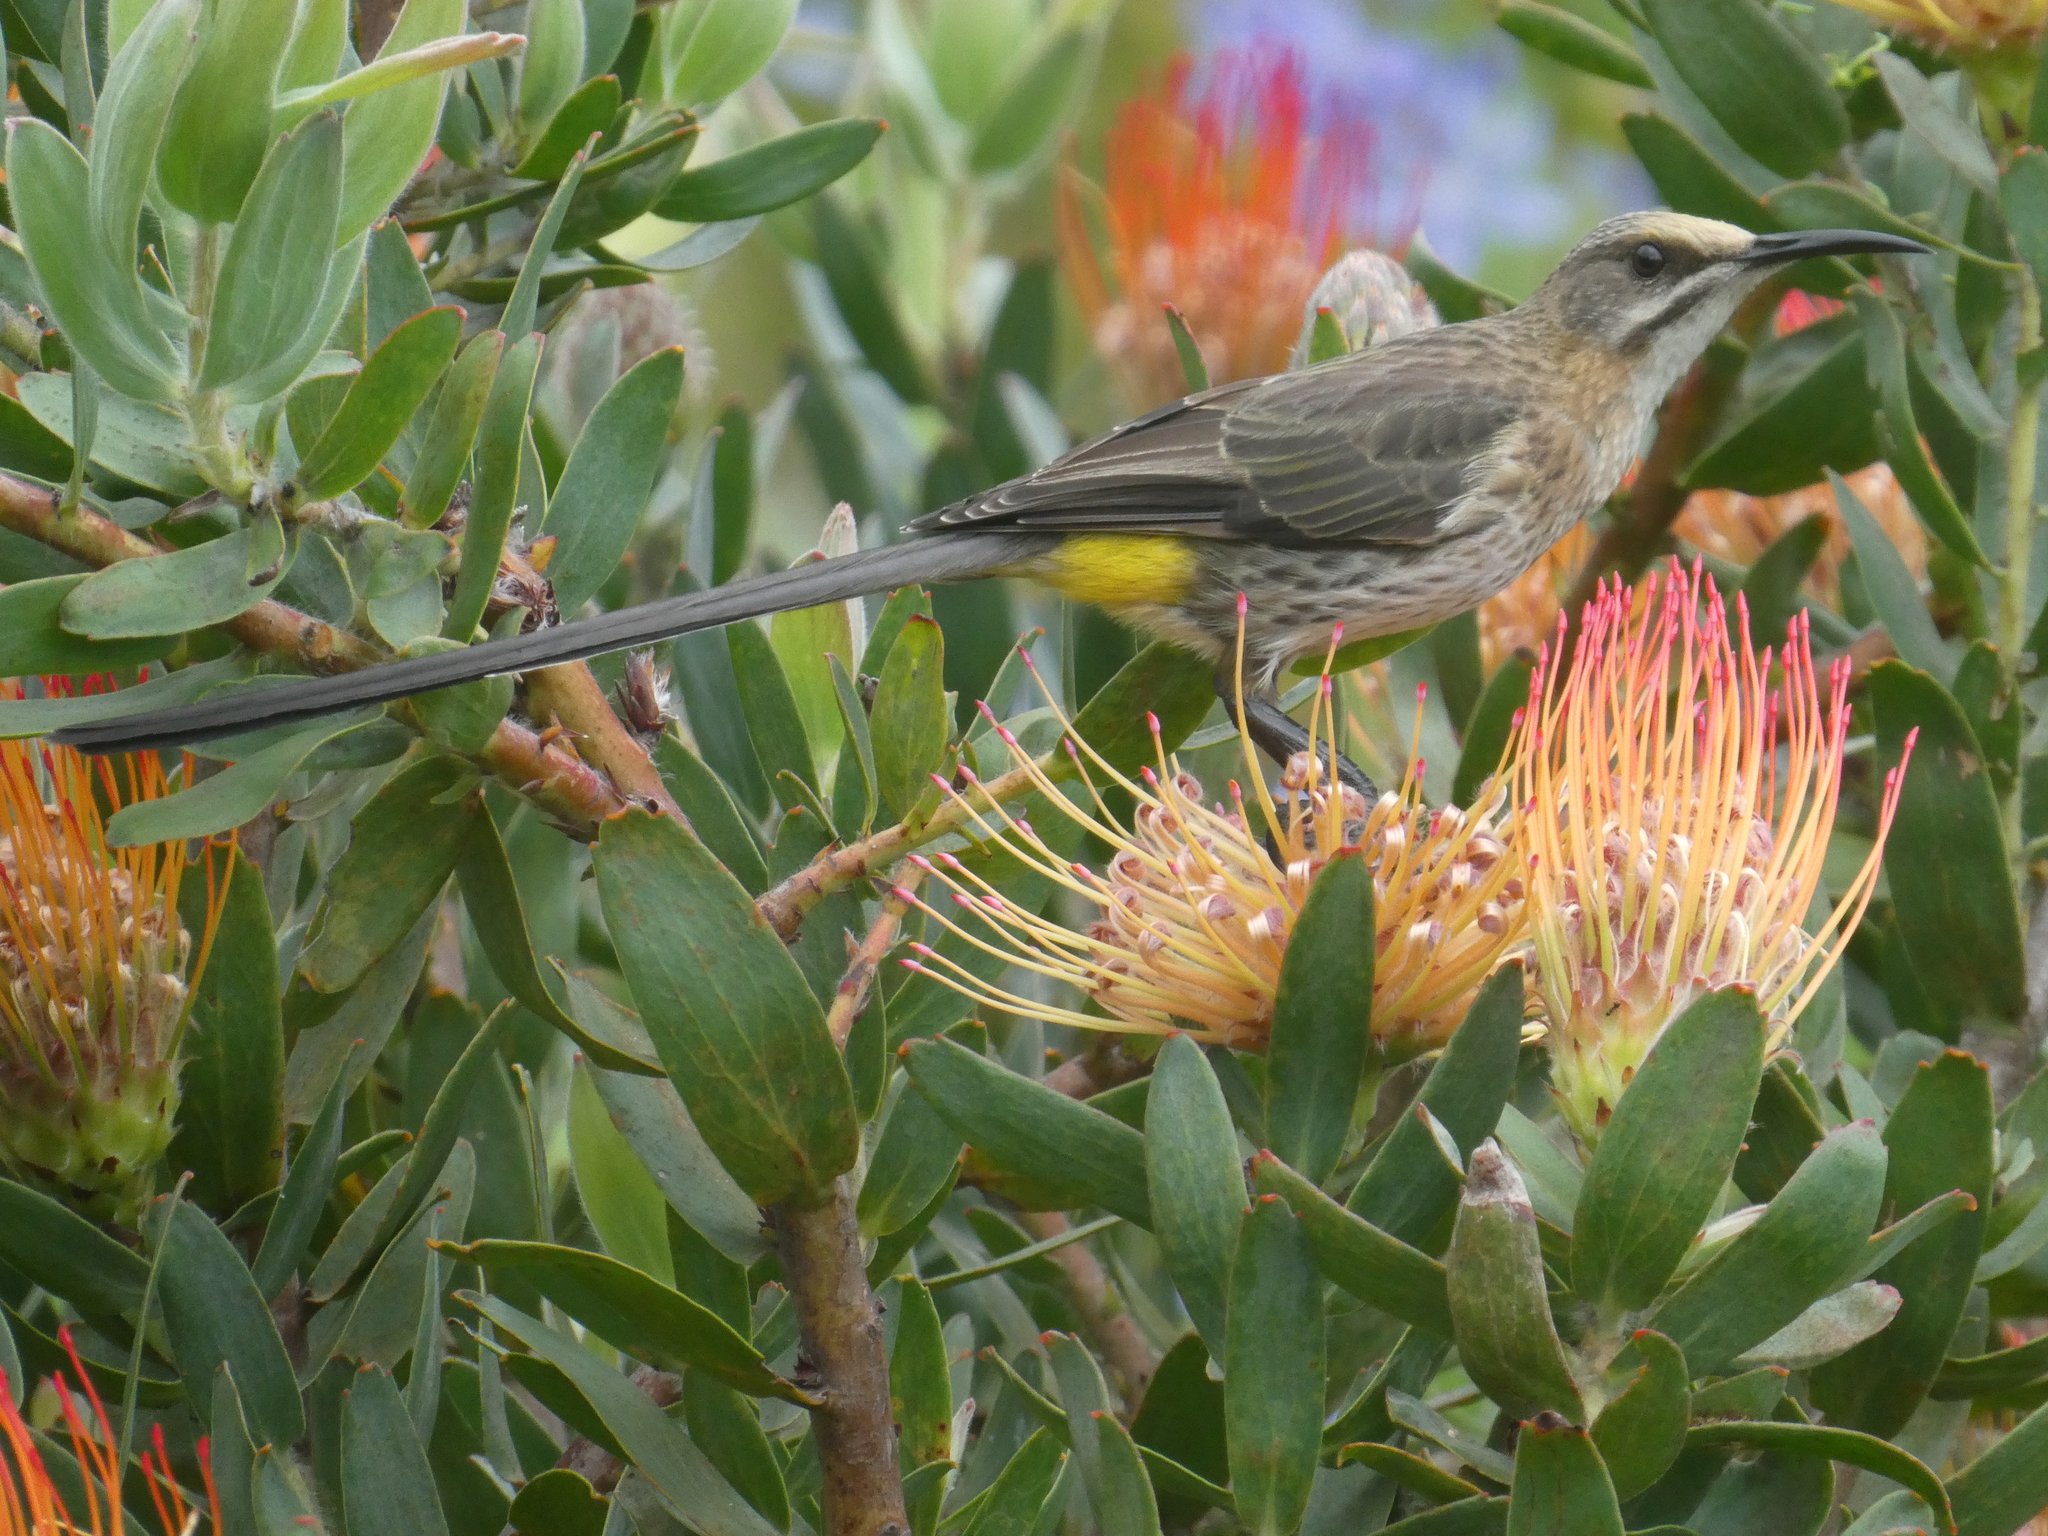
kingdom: Animalia
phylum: Chordata
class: Aves
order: Passeriformes
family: Promeropidae
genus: Promerops
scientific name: Promerops cafer
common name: Cape sugarbird
